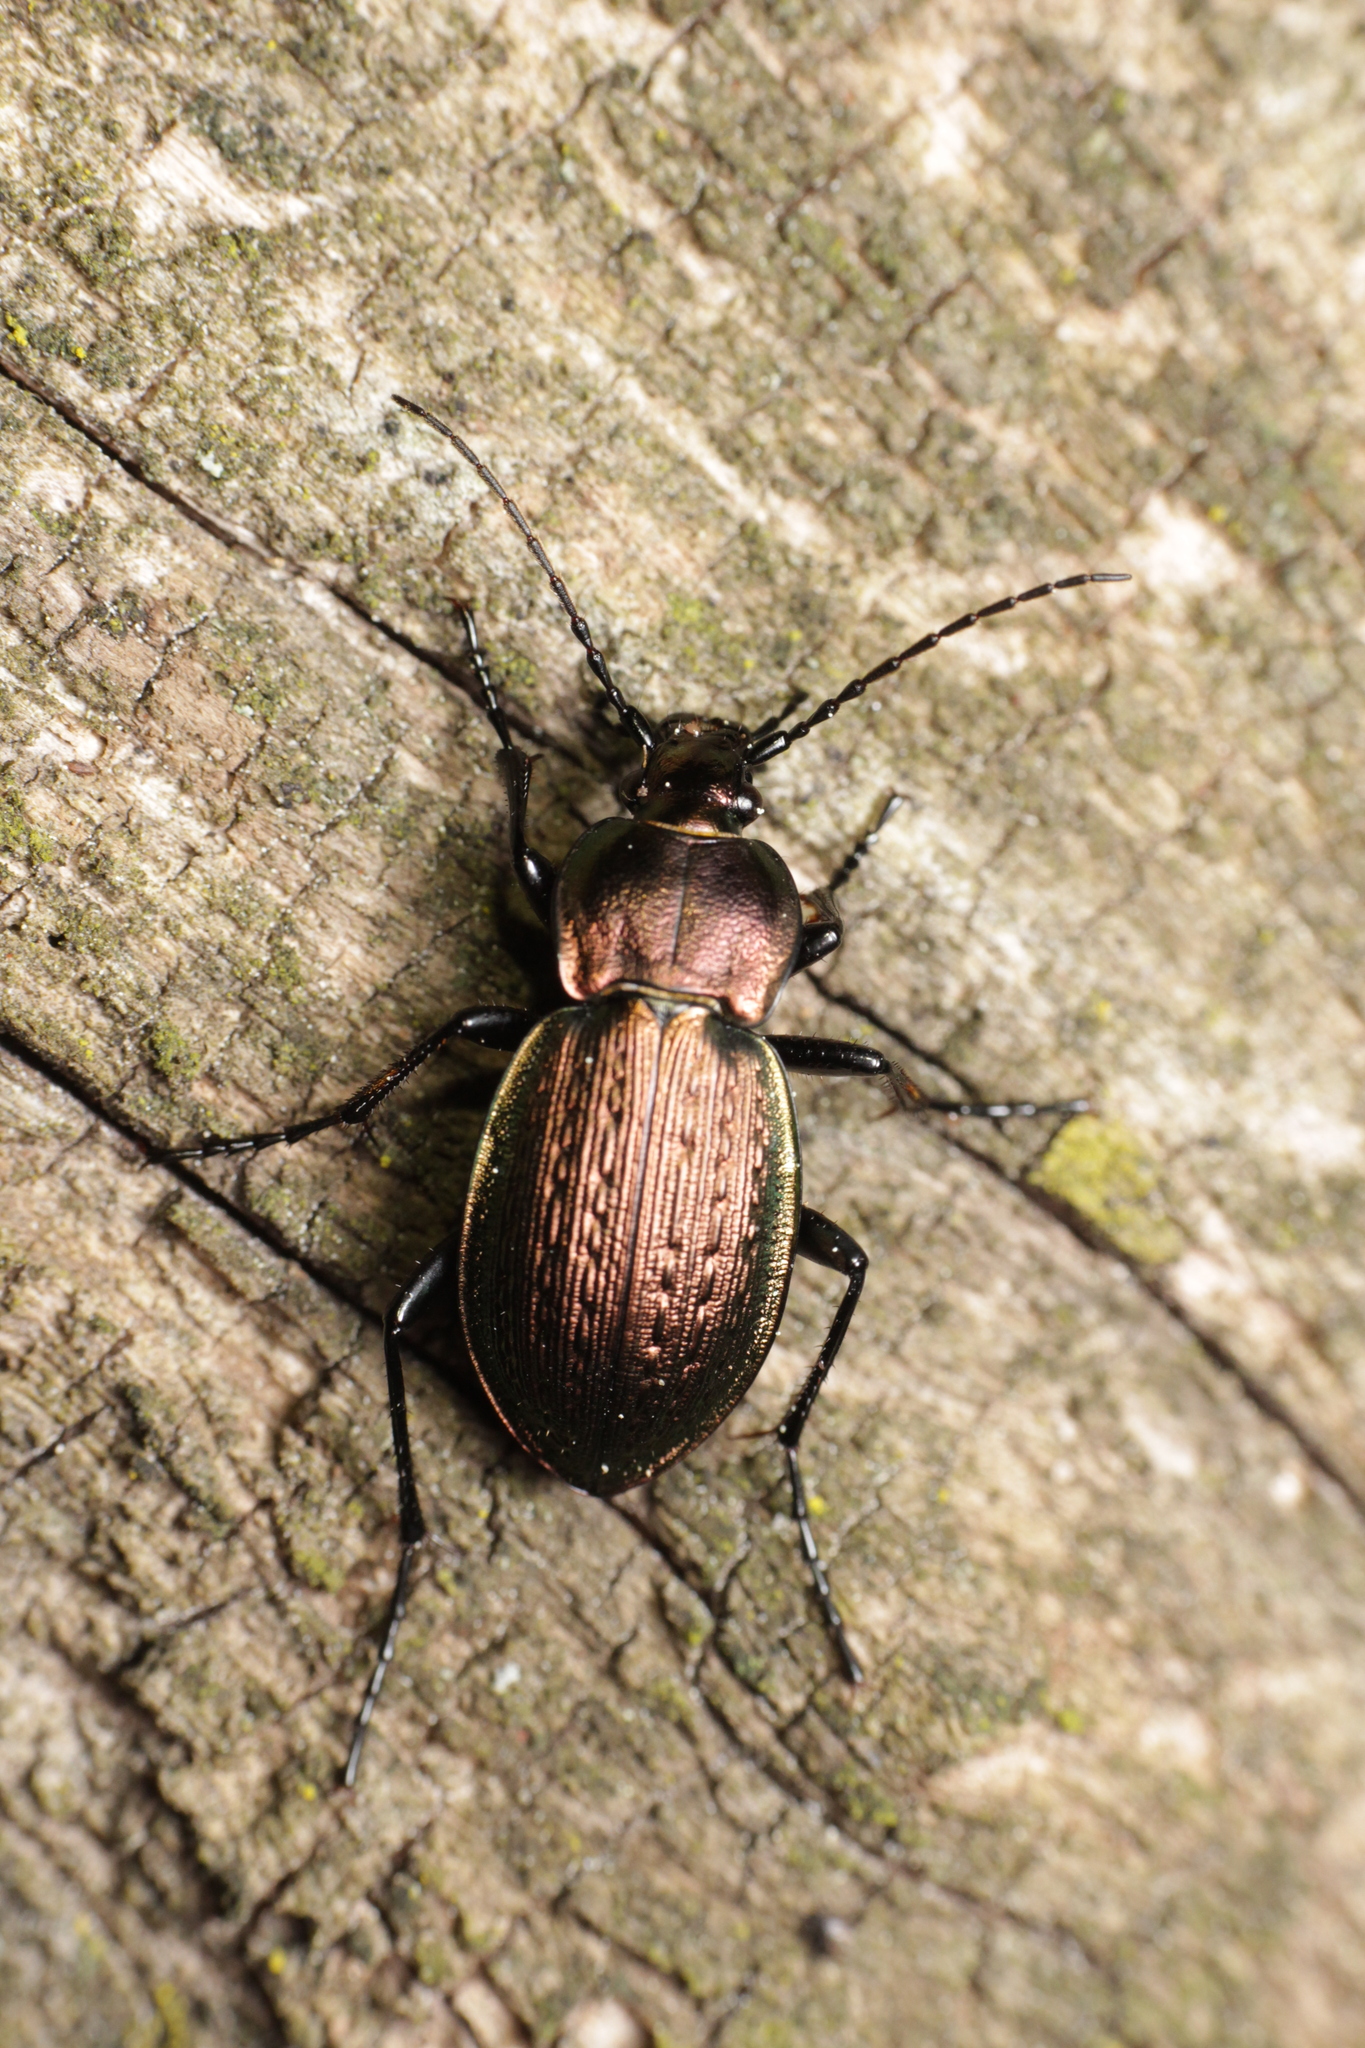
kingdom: Animalia
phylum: Arthropoda
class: Insecta
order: Coleoptera
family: Carabidae
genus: Carabus
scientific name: Carabus arvensis
